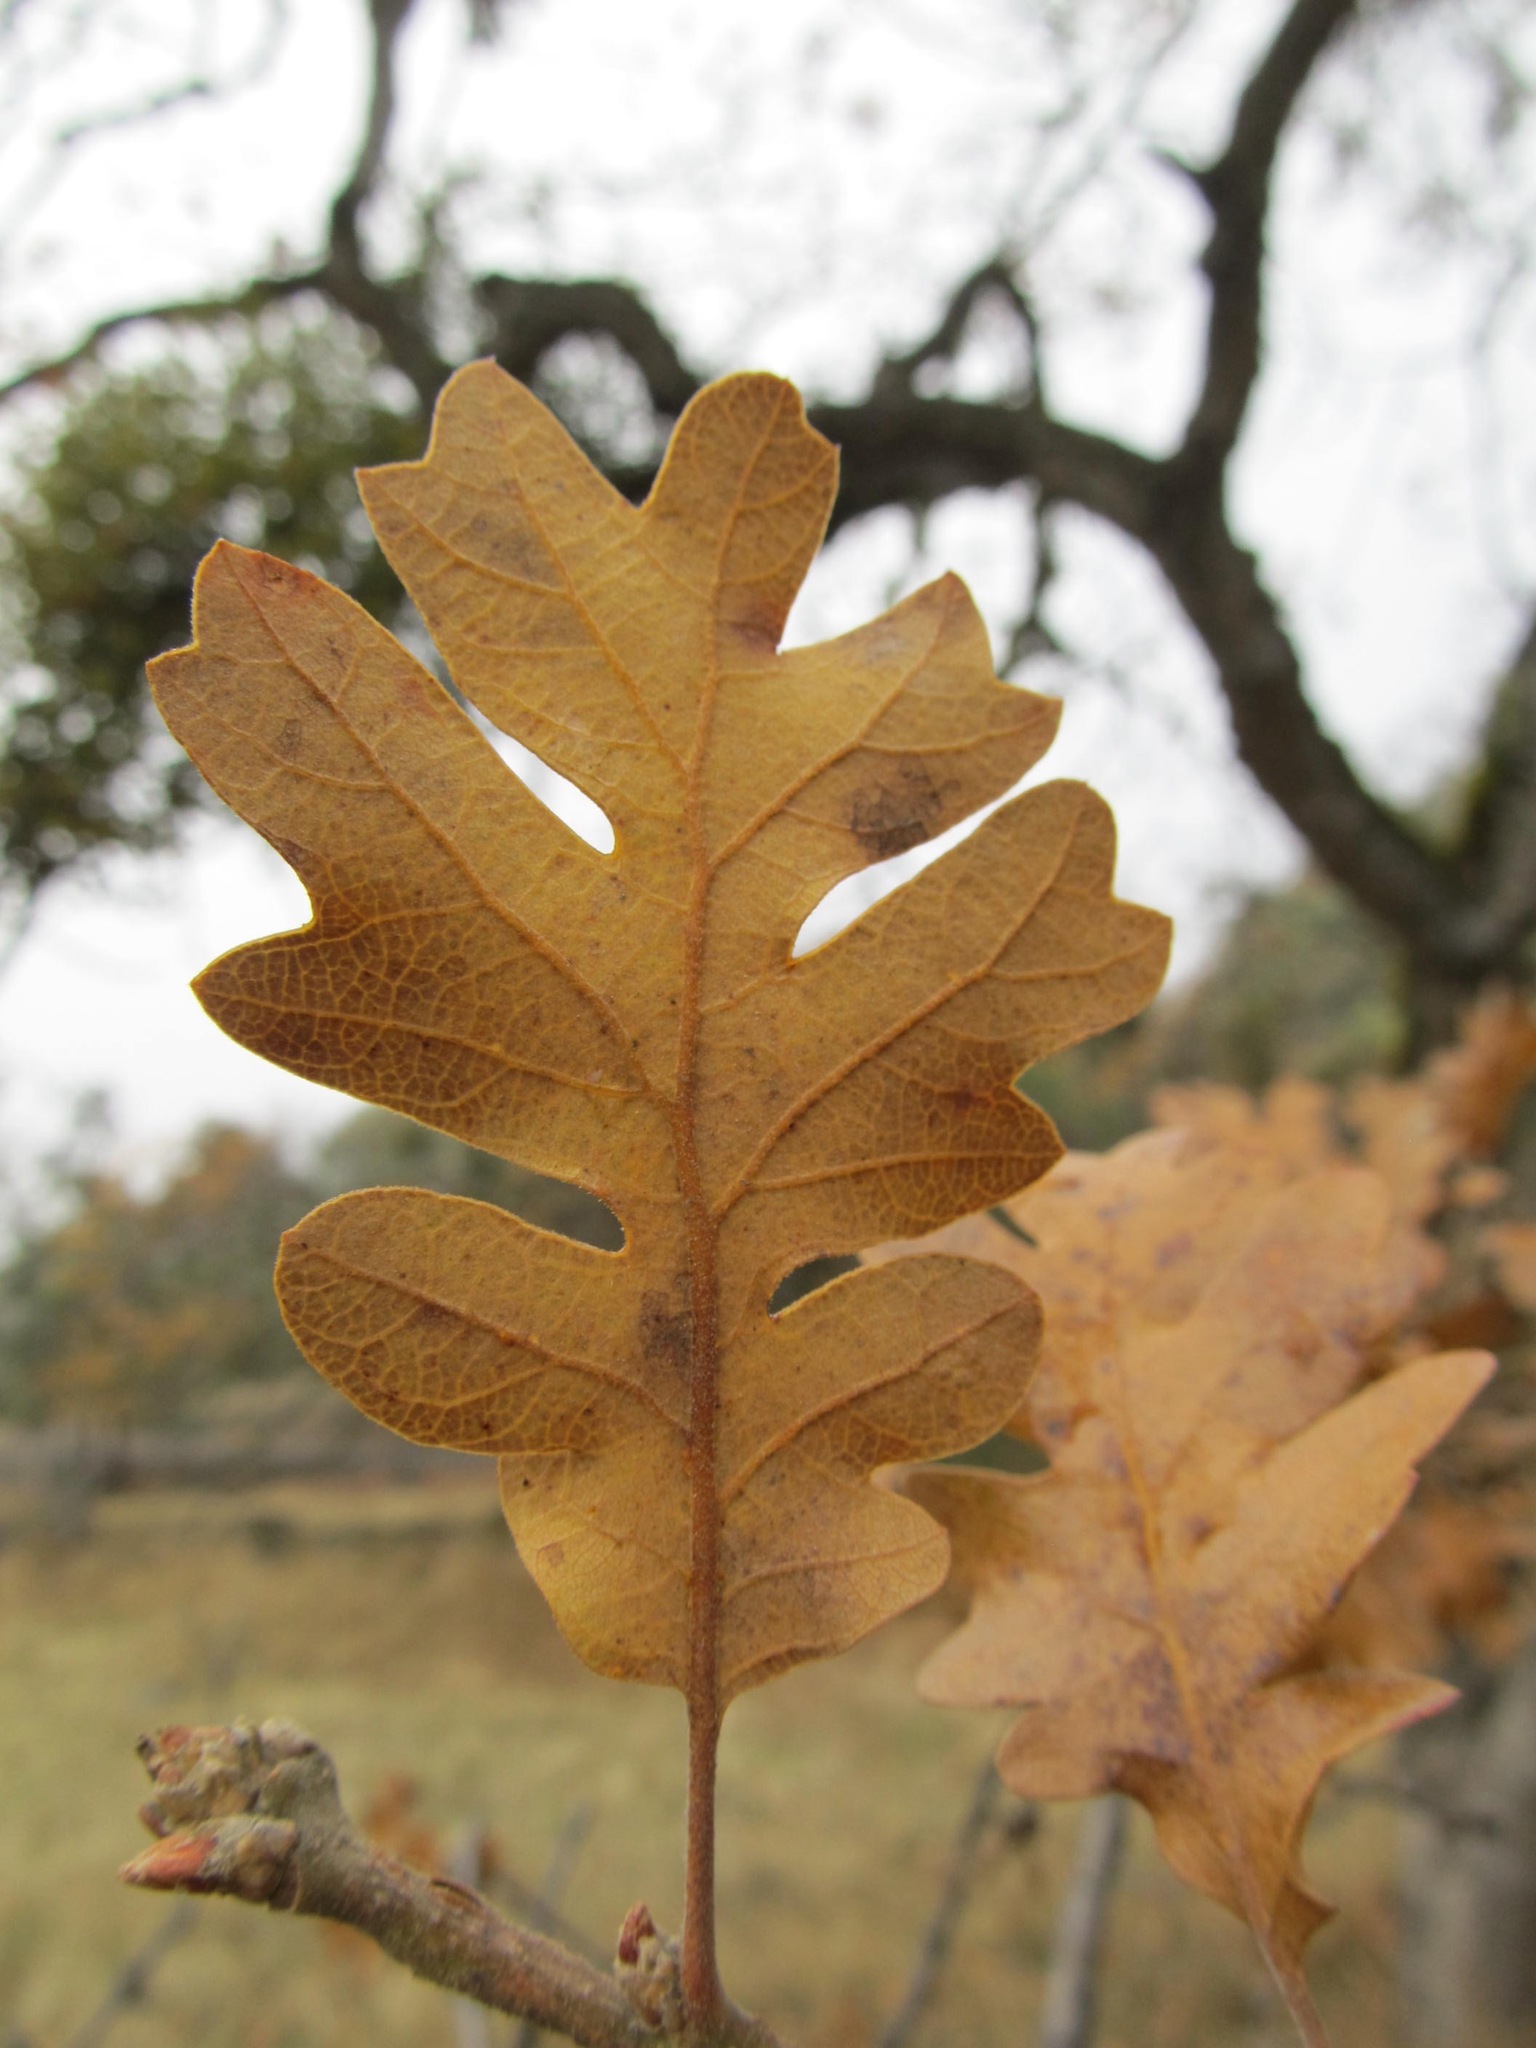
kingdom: Plantae
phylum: Tracheophyta
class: Magnoliopsida
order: Fagales
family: Fagaceae
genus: Quercus
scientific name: Quercus garryana
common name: Garry oak
